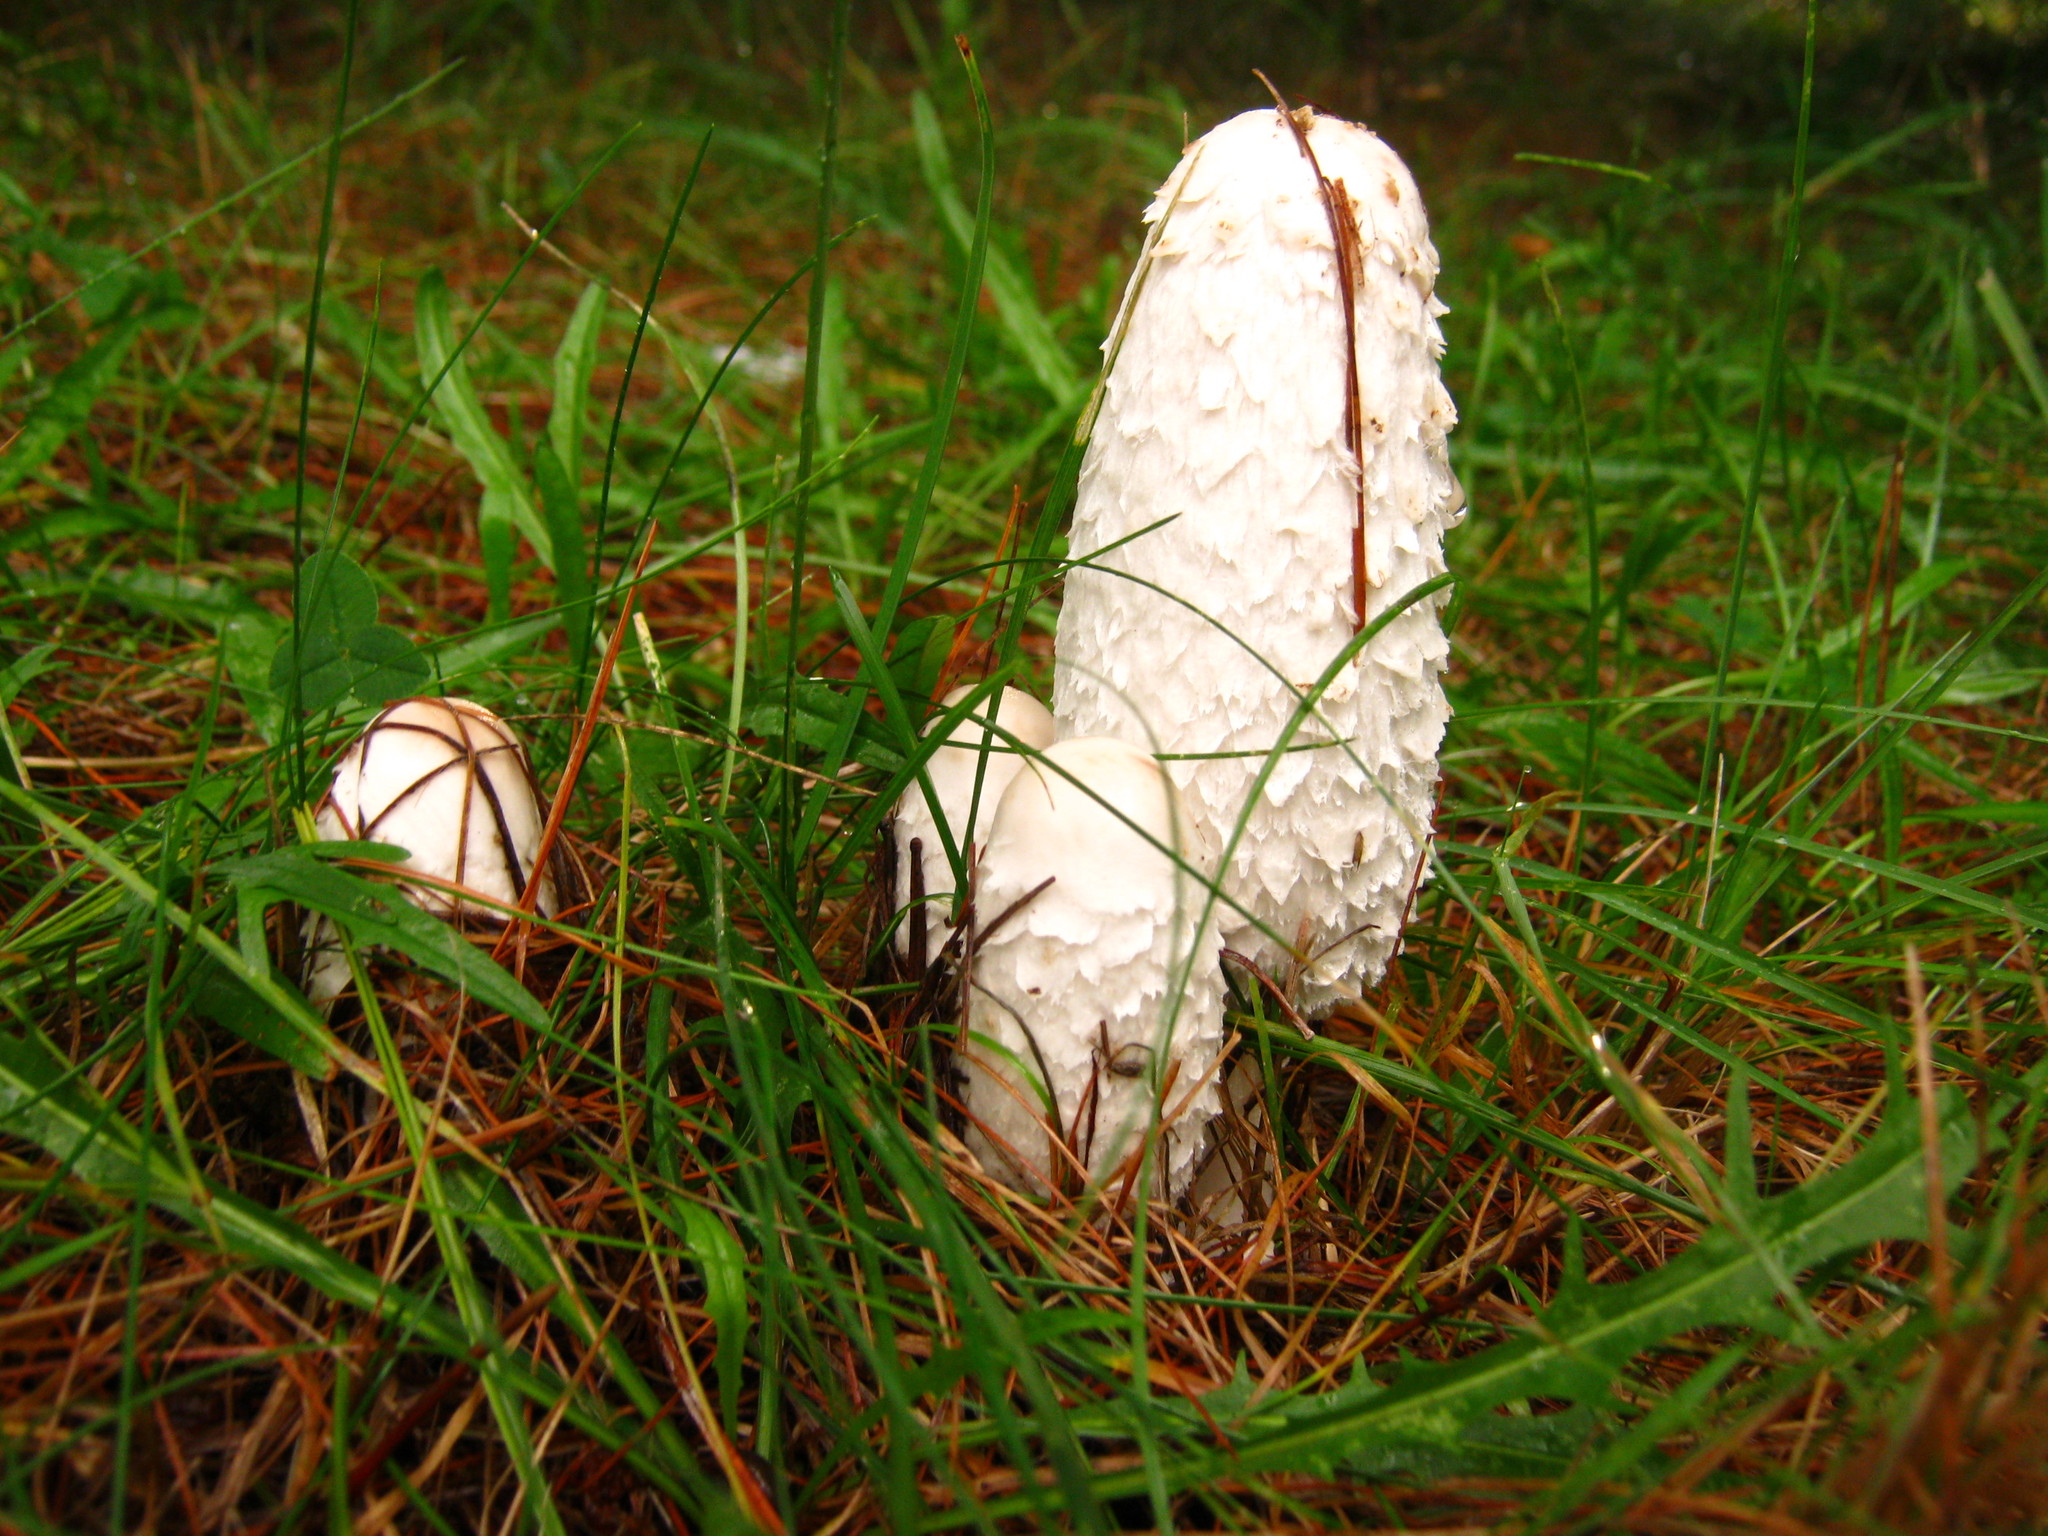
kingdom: Fungi
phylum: Basidiomycota
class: Agaricomycetes
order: Agaricales
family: Agaricaceae
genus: Coprinus
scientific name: Coprinus comatus
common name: Lawyer's wig
